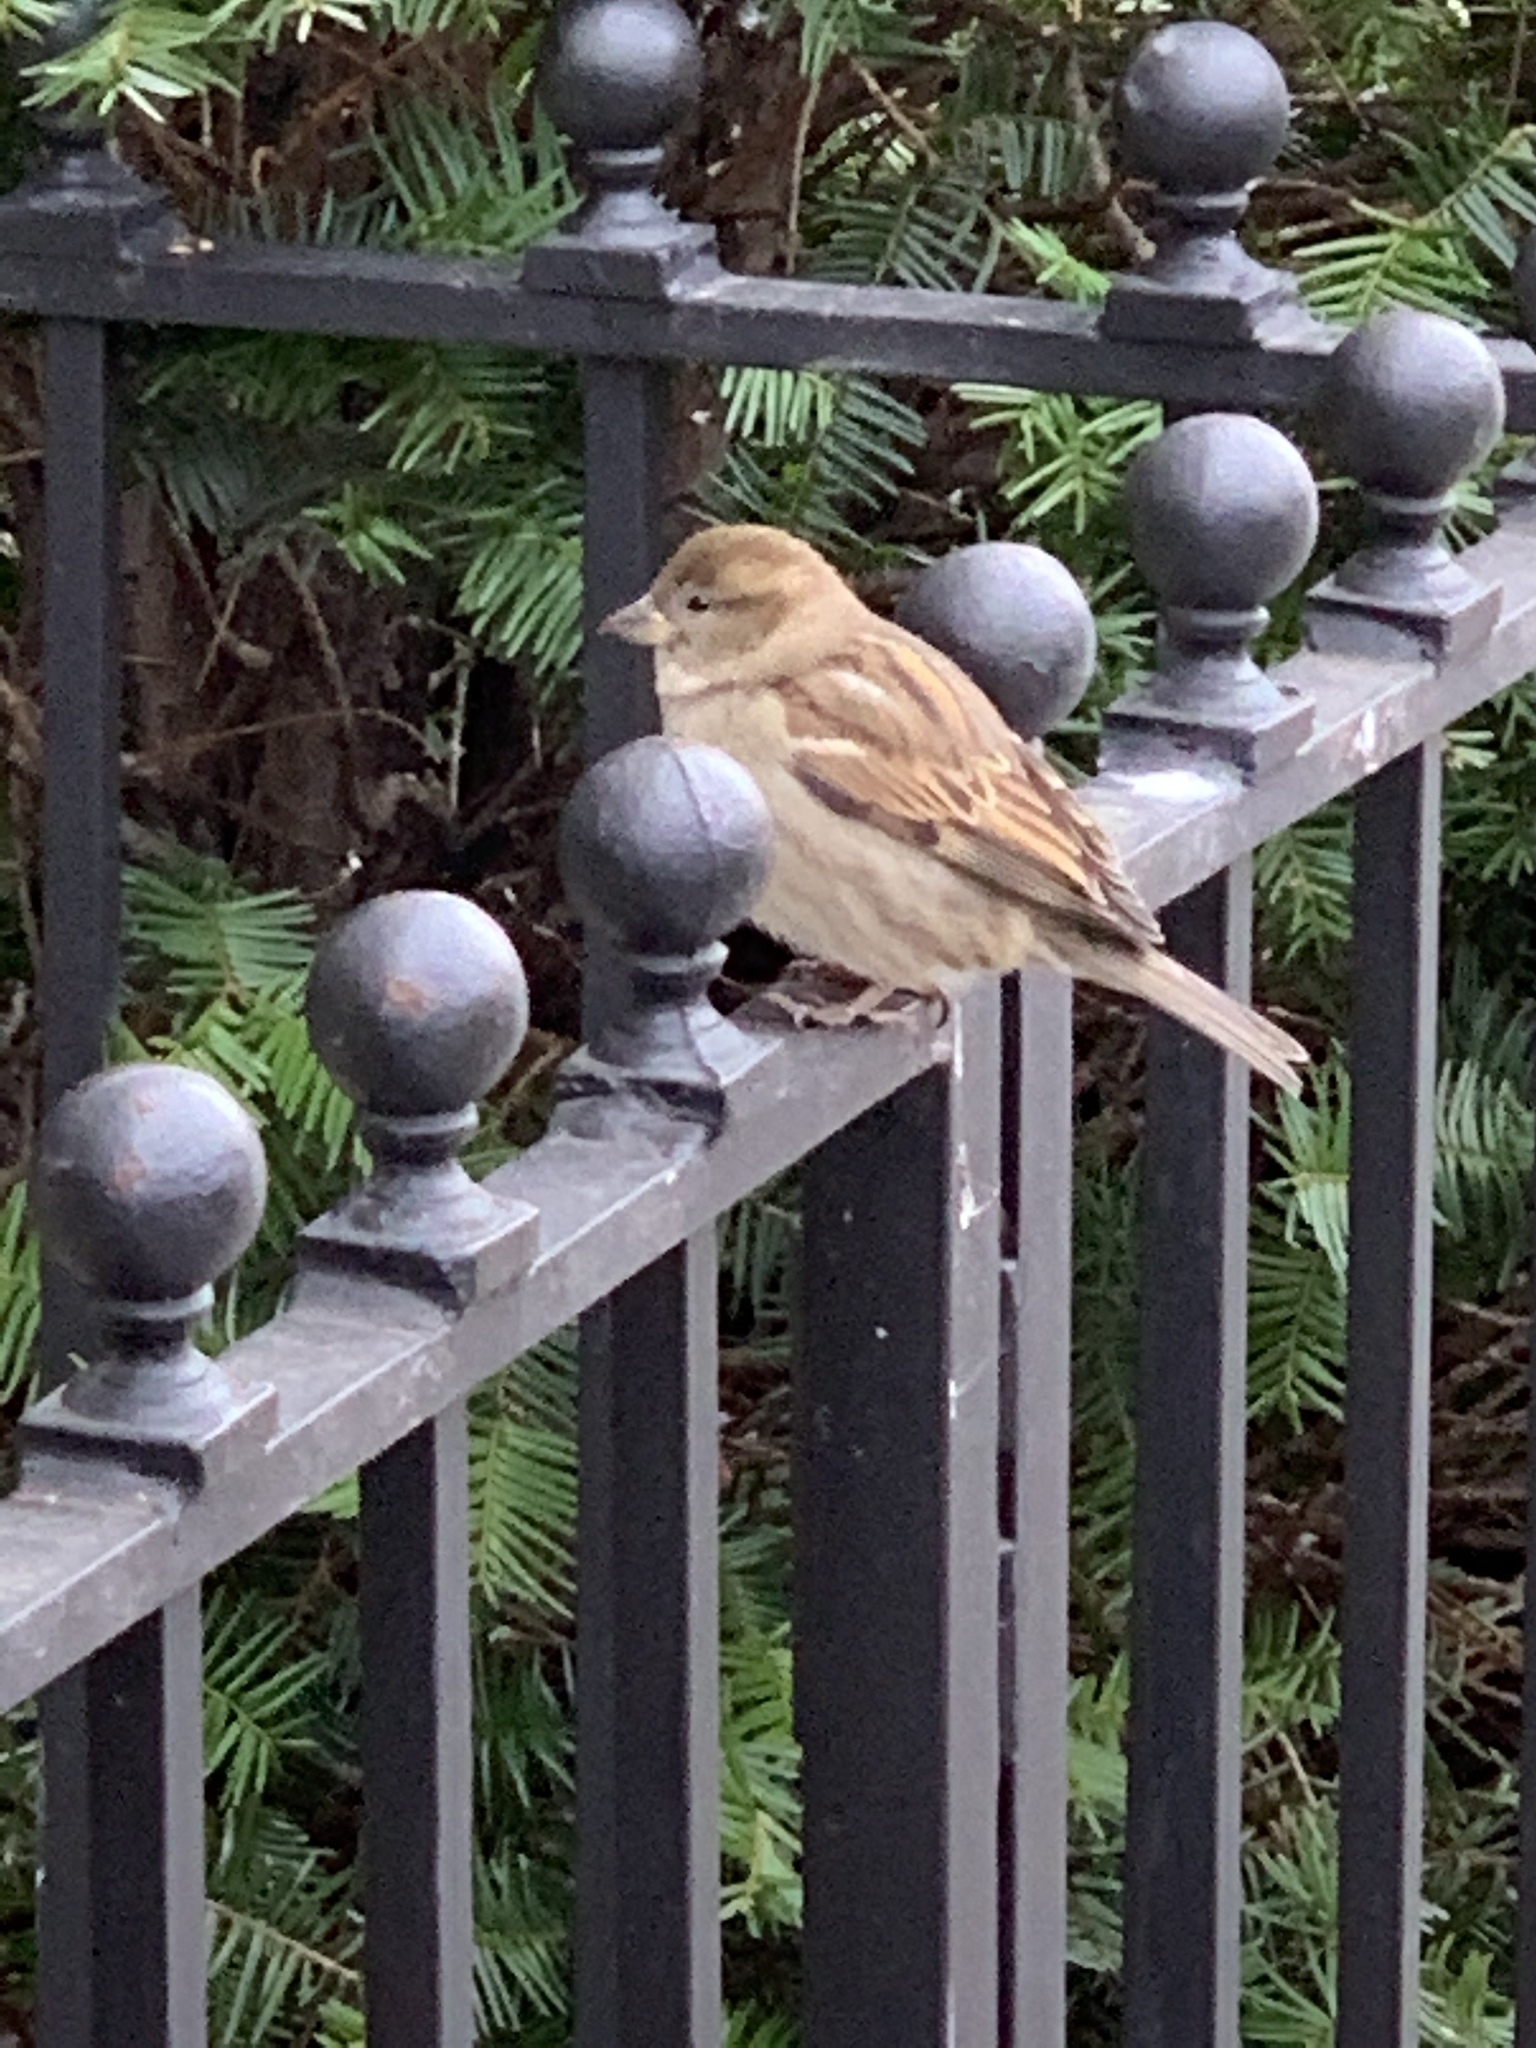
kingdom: Animalia
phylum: Chordata
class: Aves
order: Passeriformes
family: Passeridae
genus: Passer
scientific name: Passer domesticus
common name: House sparrow
